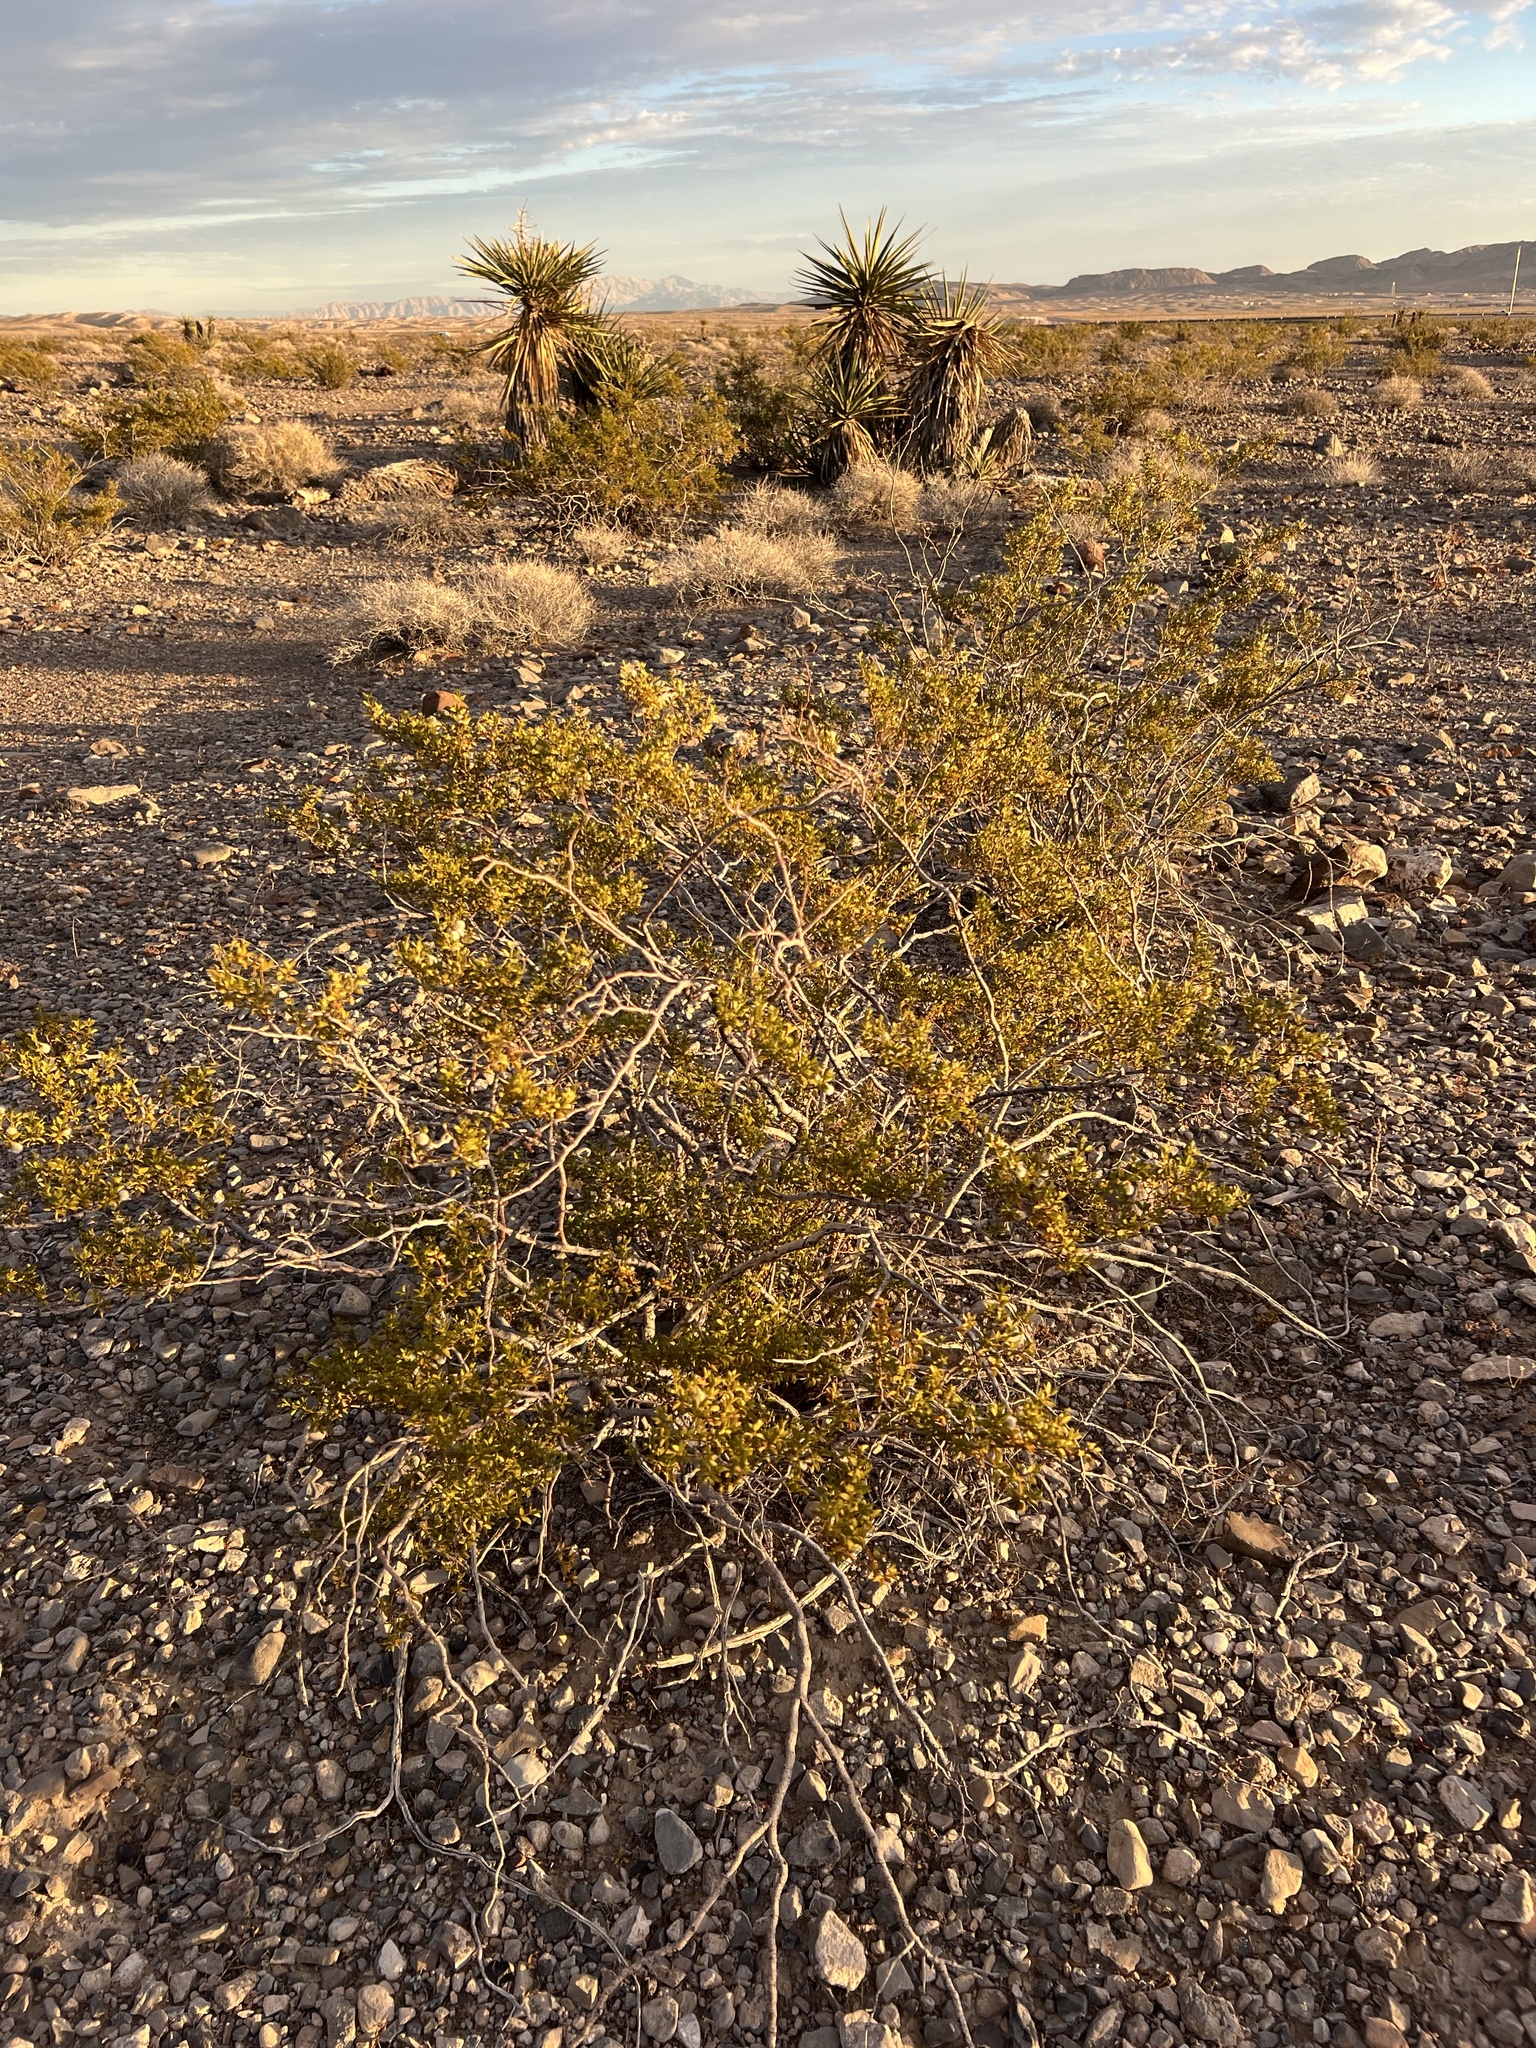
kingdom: Plantae
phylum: Tracheophyta
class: Magnoliopsida
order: Zygophyllales
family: Zygophyllaceae
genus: Larrea
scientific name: Larrea tridentata
